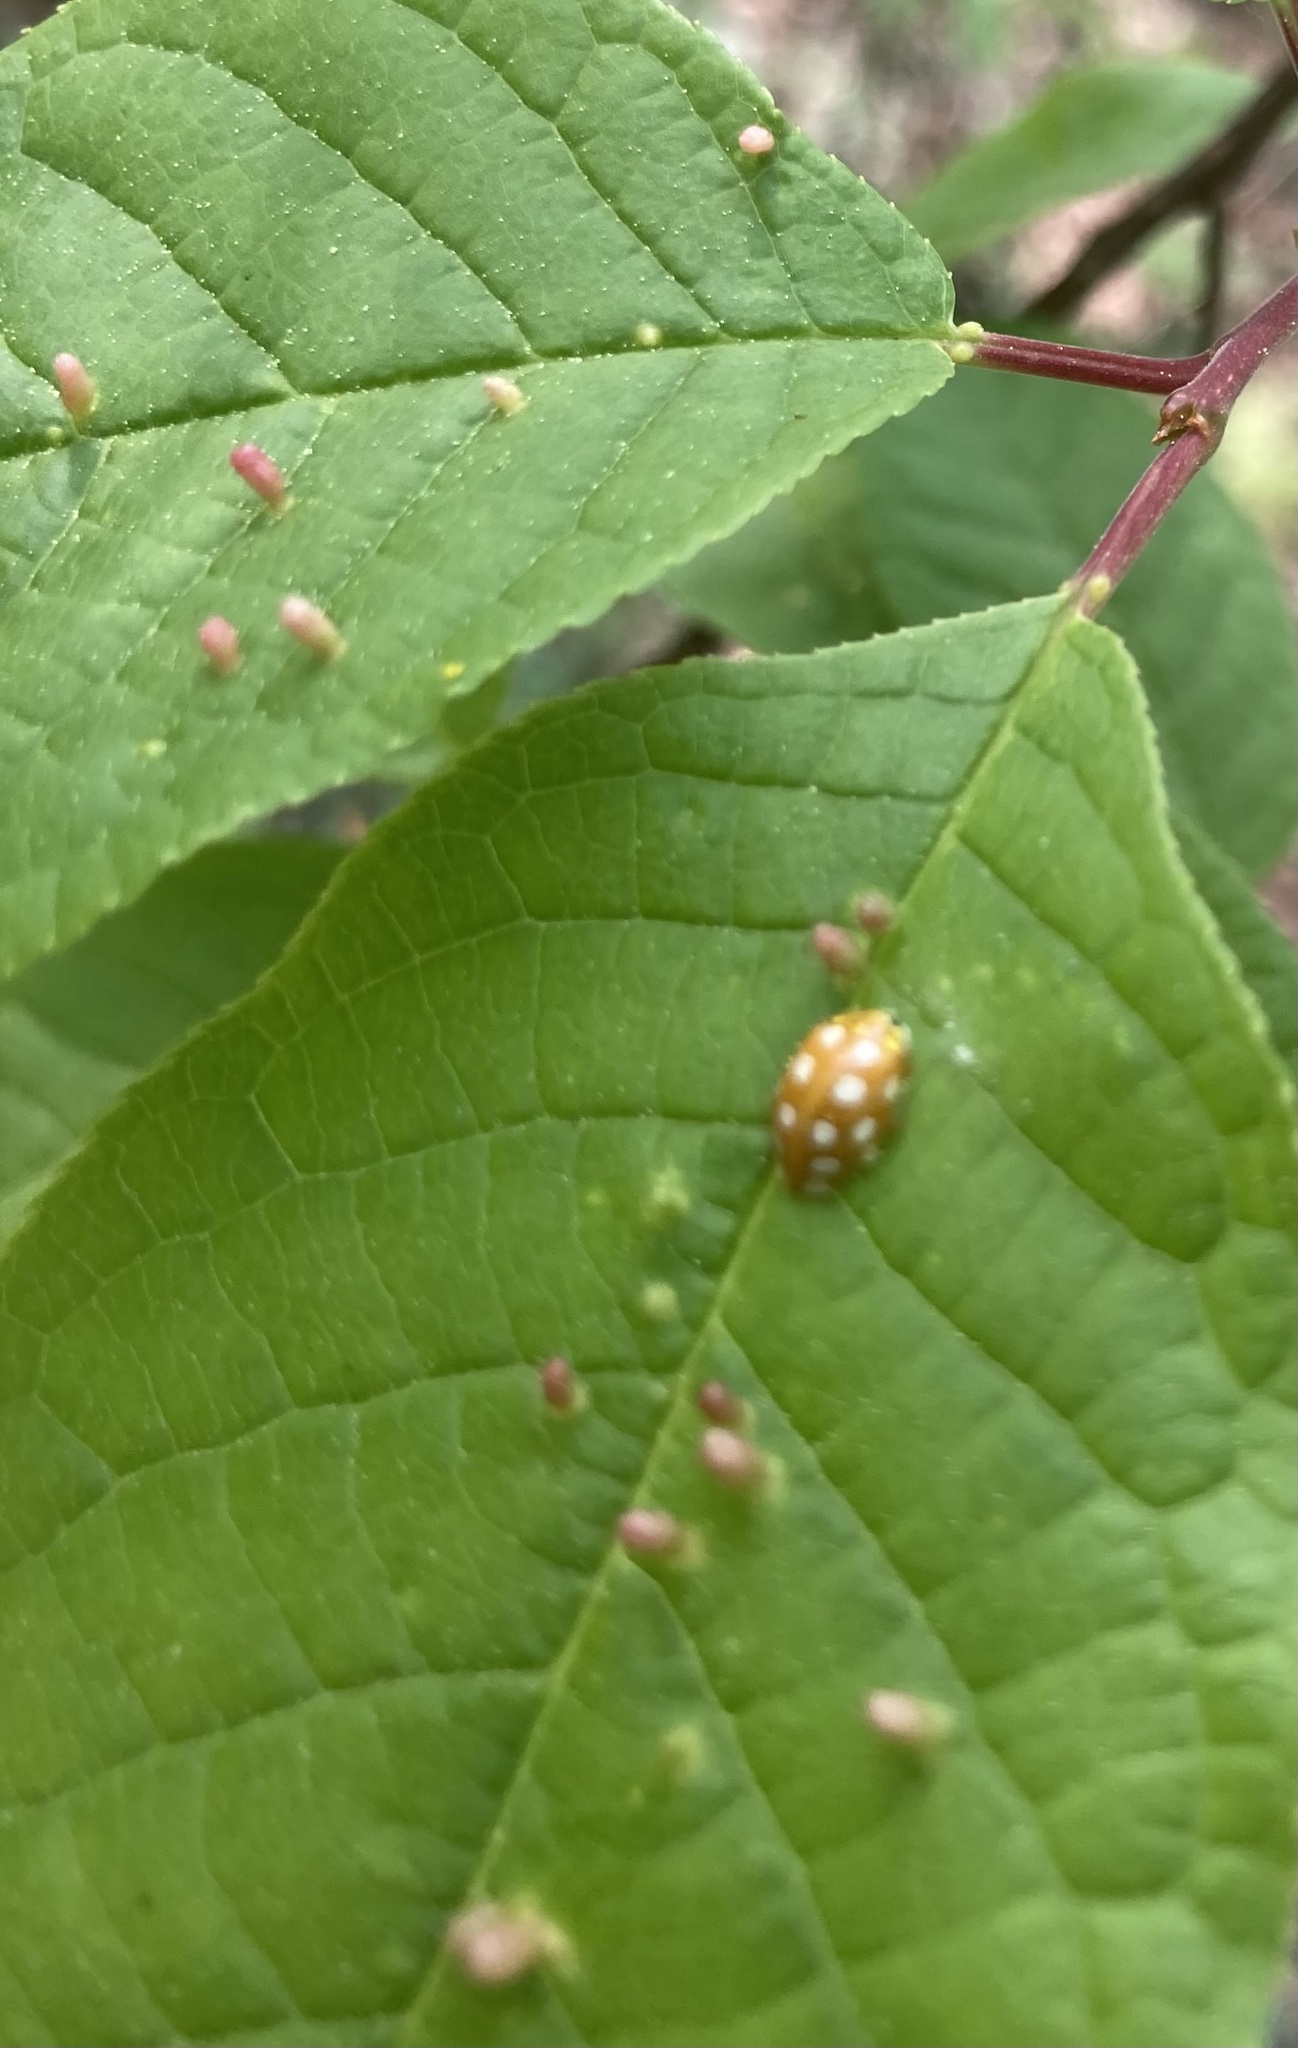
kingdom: Animalia
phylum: Arthropoda
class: Insecta
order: Coleoptera
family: Coccinellidae
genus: Halyzia
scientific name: Halyzia sedecimguttata
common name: Orange ladybird
